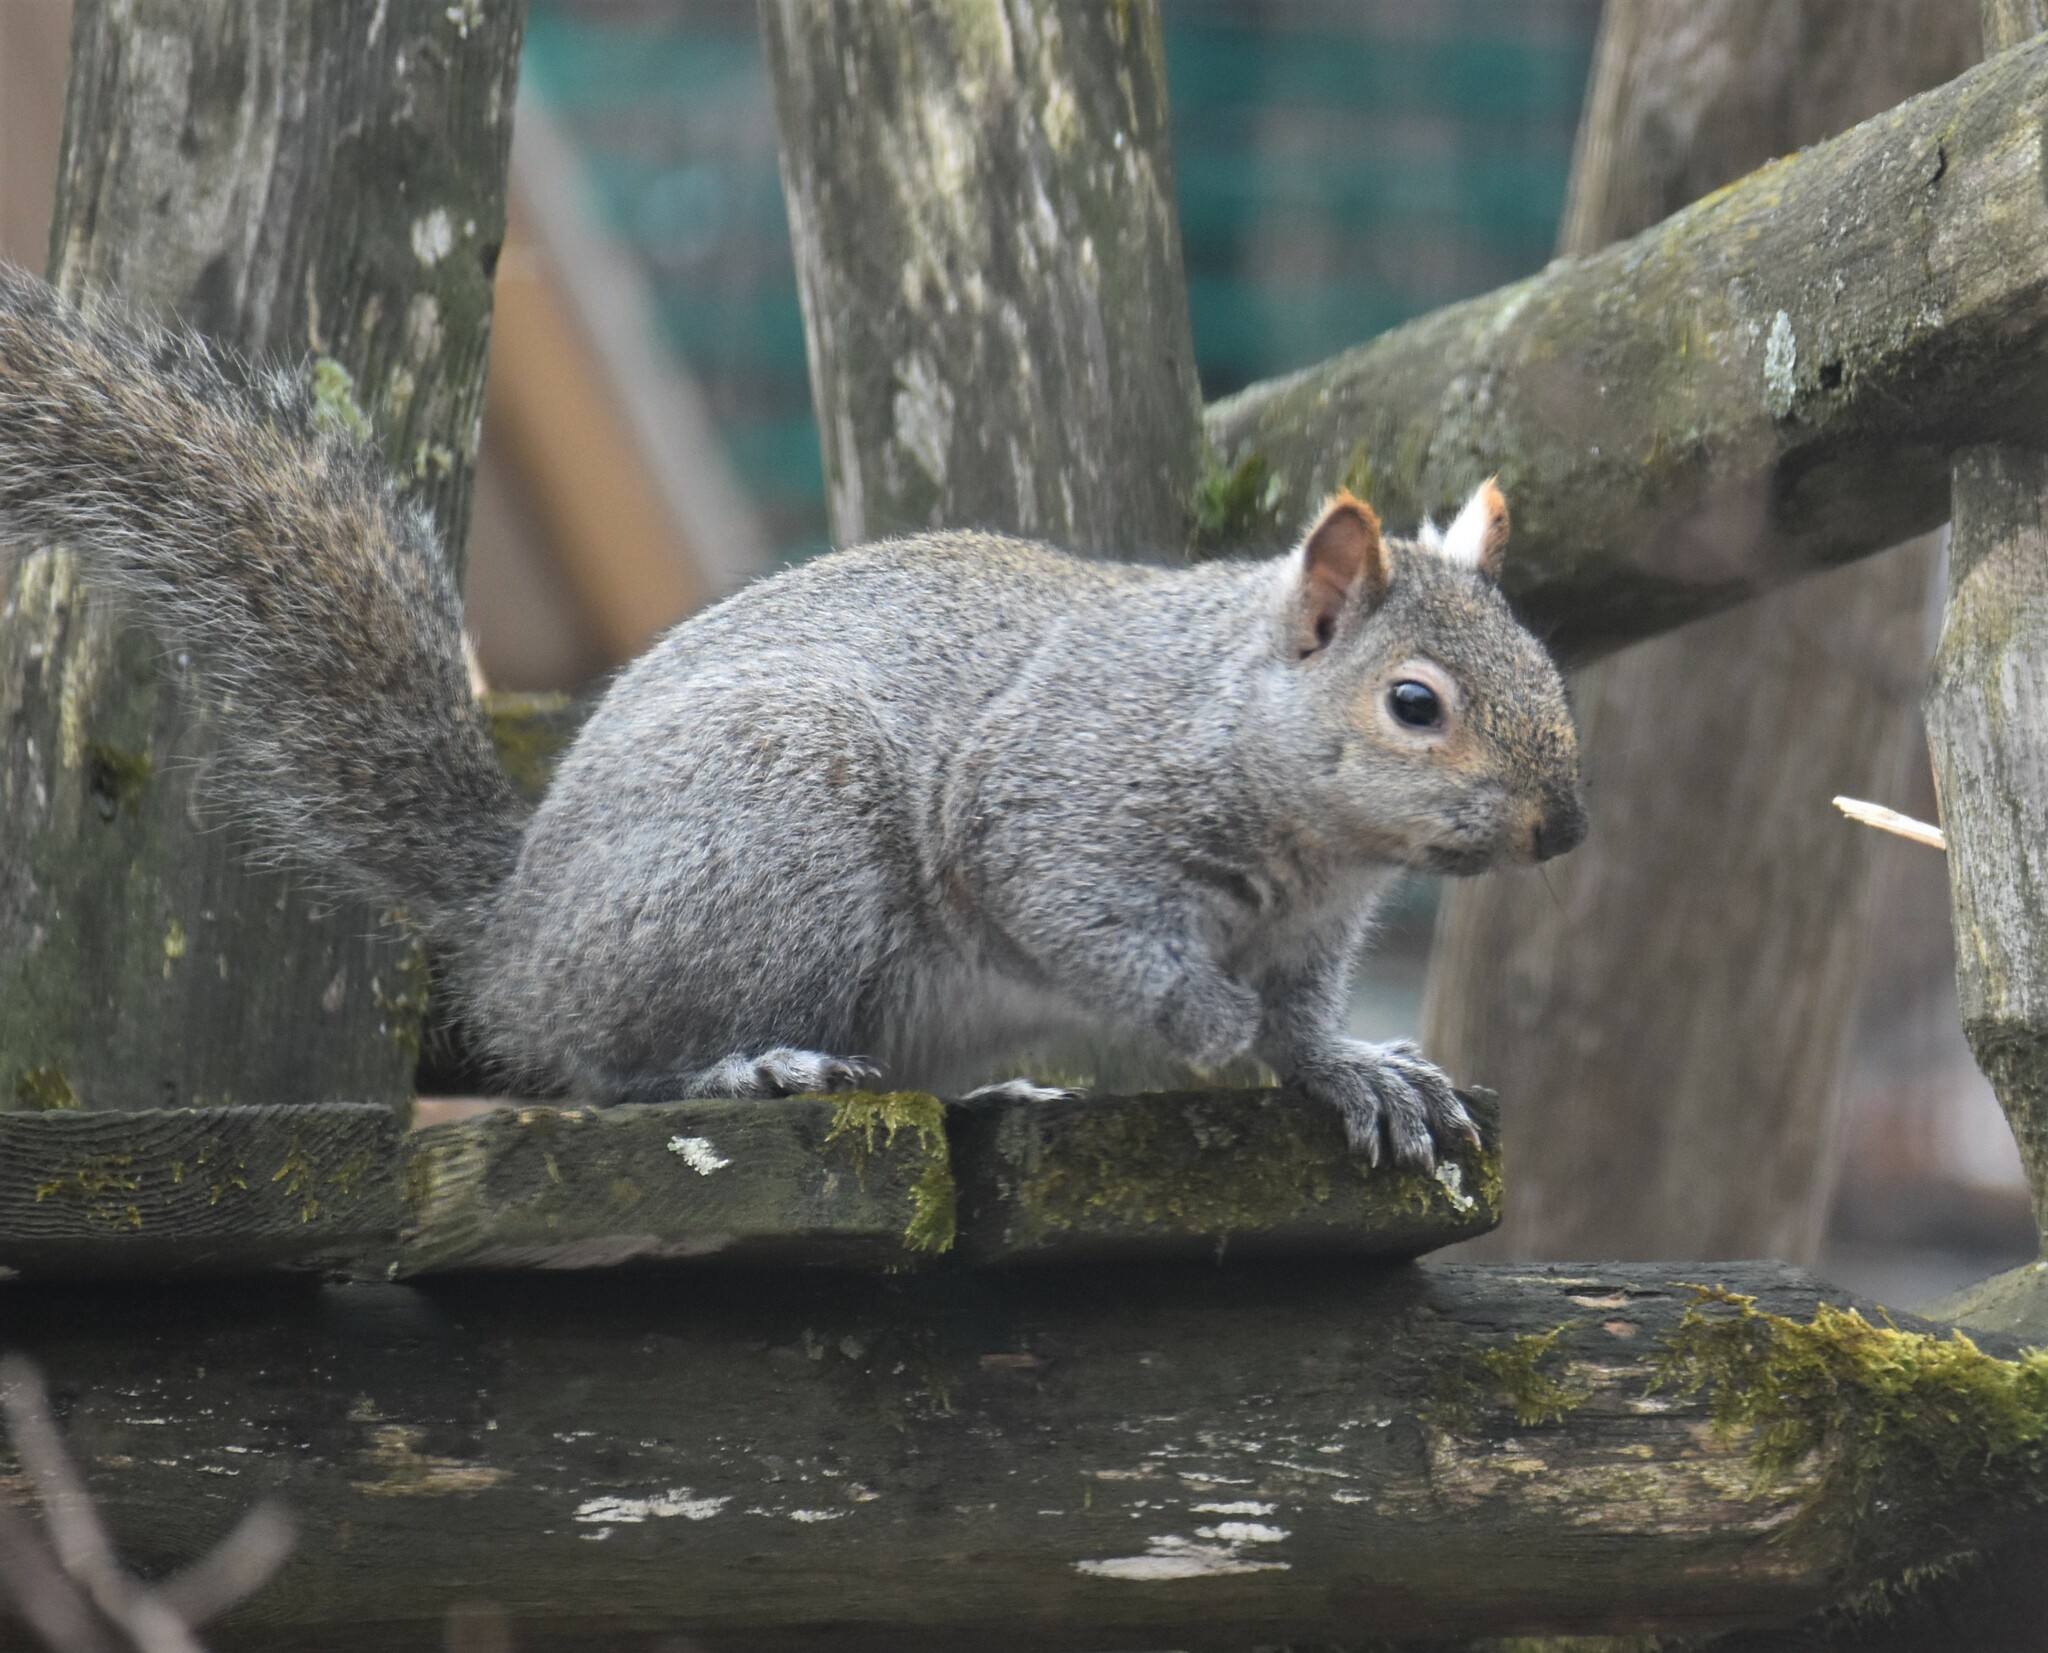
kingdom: Animalia
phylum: Chordata
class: Mammalia
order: Rodentia
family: Sciuridae
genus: Sciurus
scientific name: Sciurus carolinensis
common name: Eastern gray squirrel
